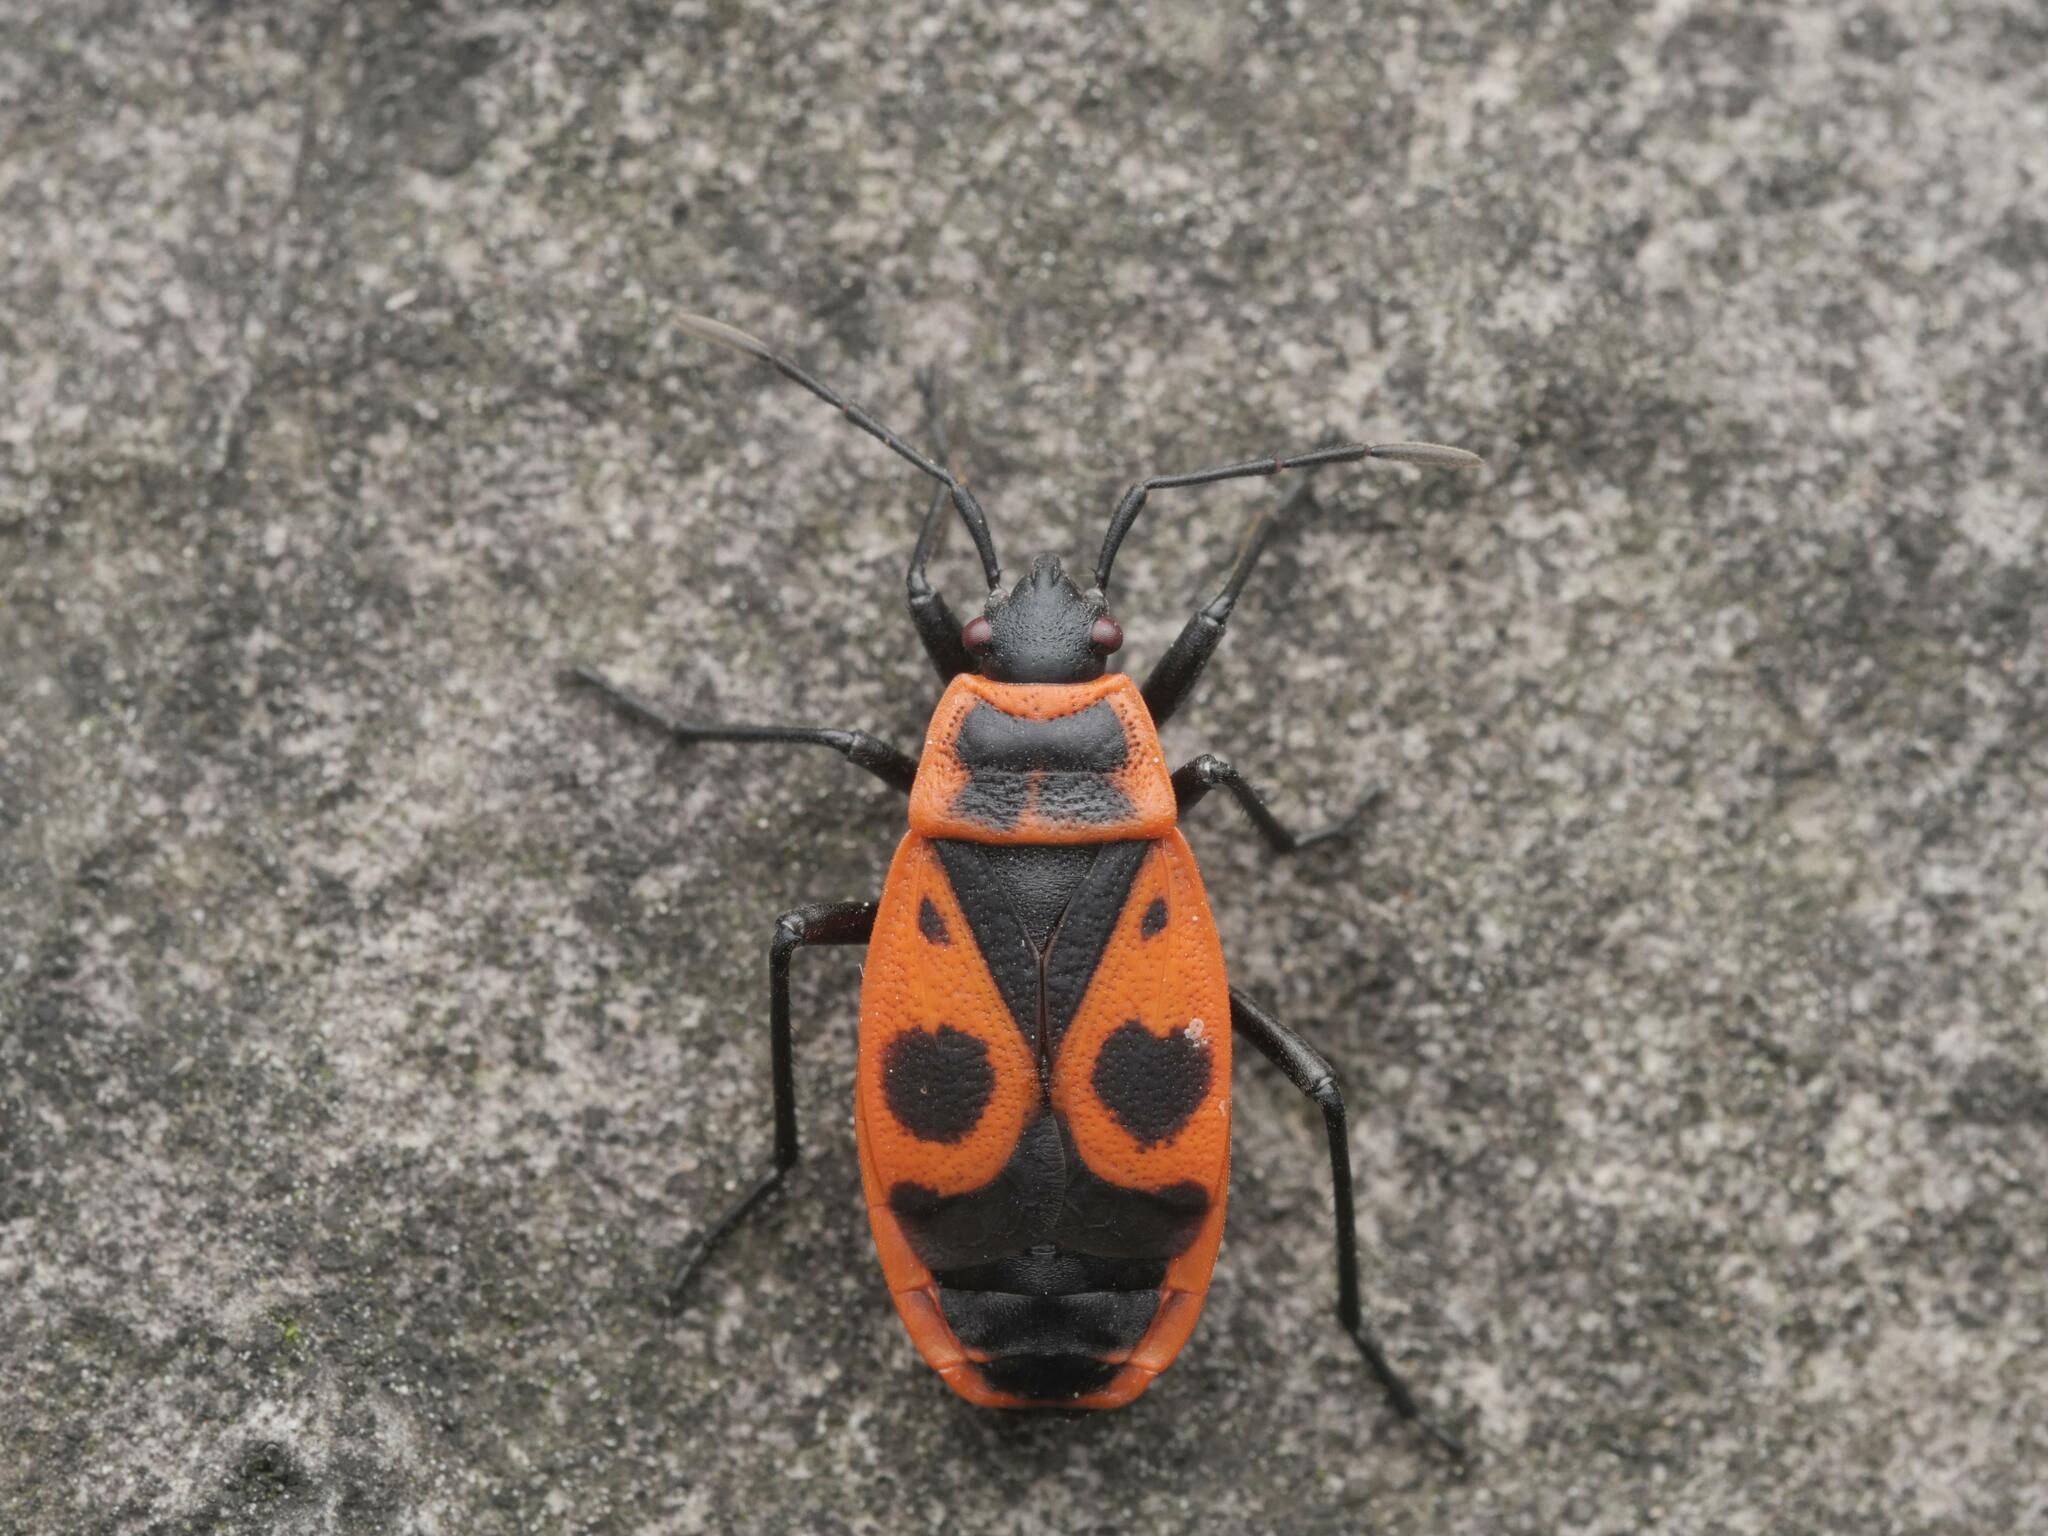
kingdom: Animalia
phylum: Arthropoda
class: Insecta
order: Hemiptera
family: Pyrrhocoridae
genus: Pyrrhocoris
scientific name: Pyrrhocoris apterus
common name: Firebug
